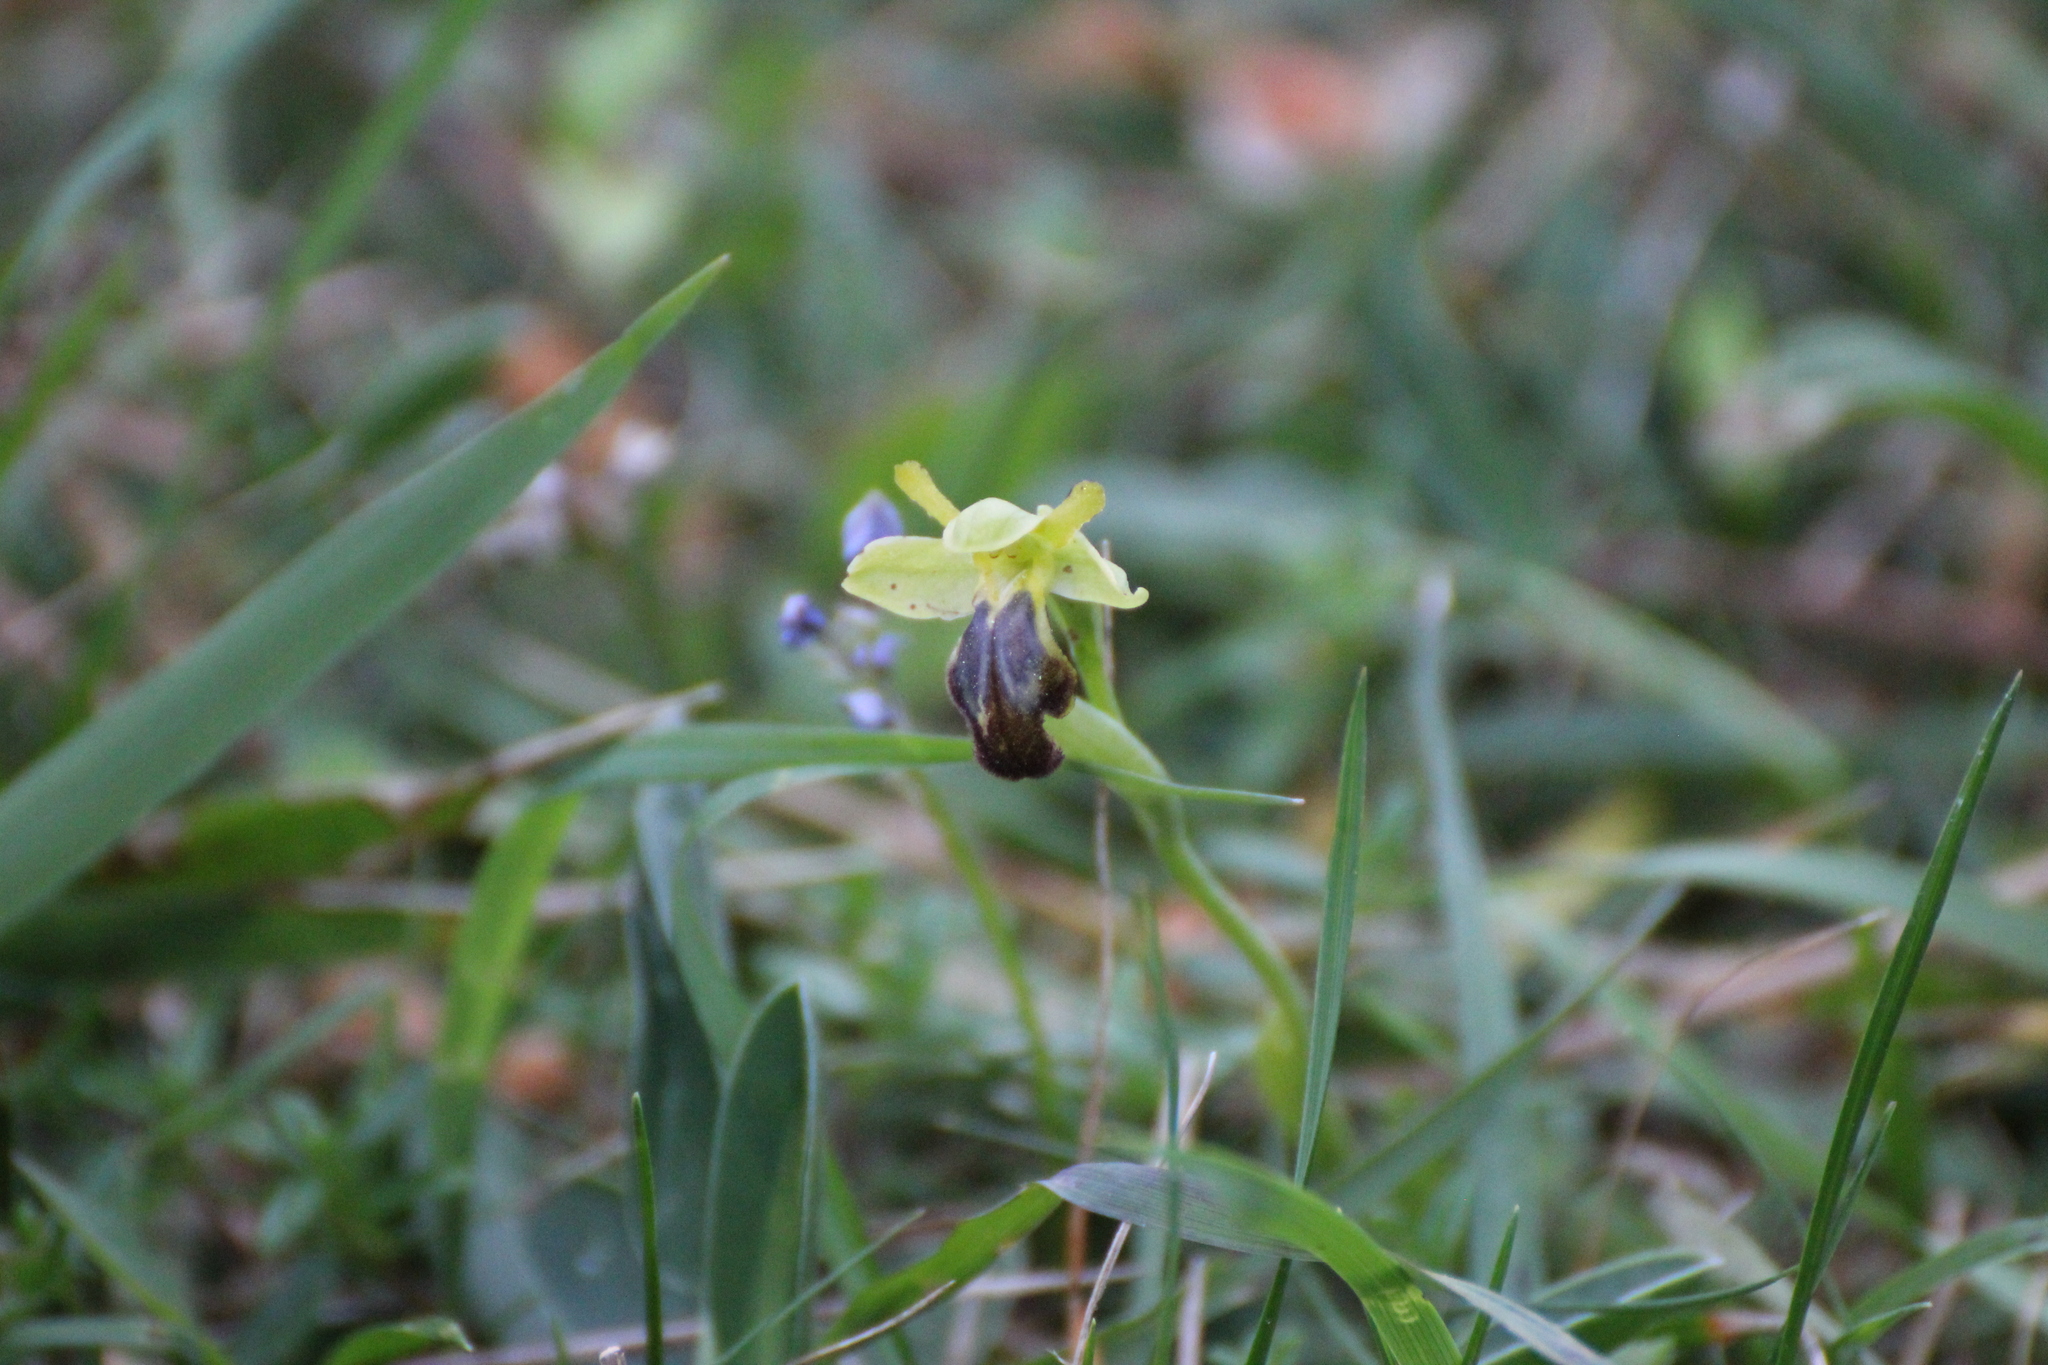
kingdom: Plantae
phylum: Tracheophyta
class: Liliopsida
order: Asparagales
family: Orchidaceae
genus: Ophrys
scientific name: Ophrys fusca
